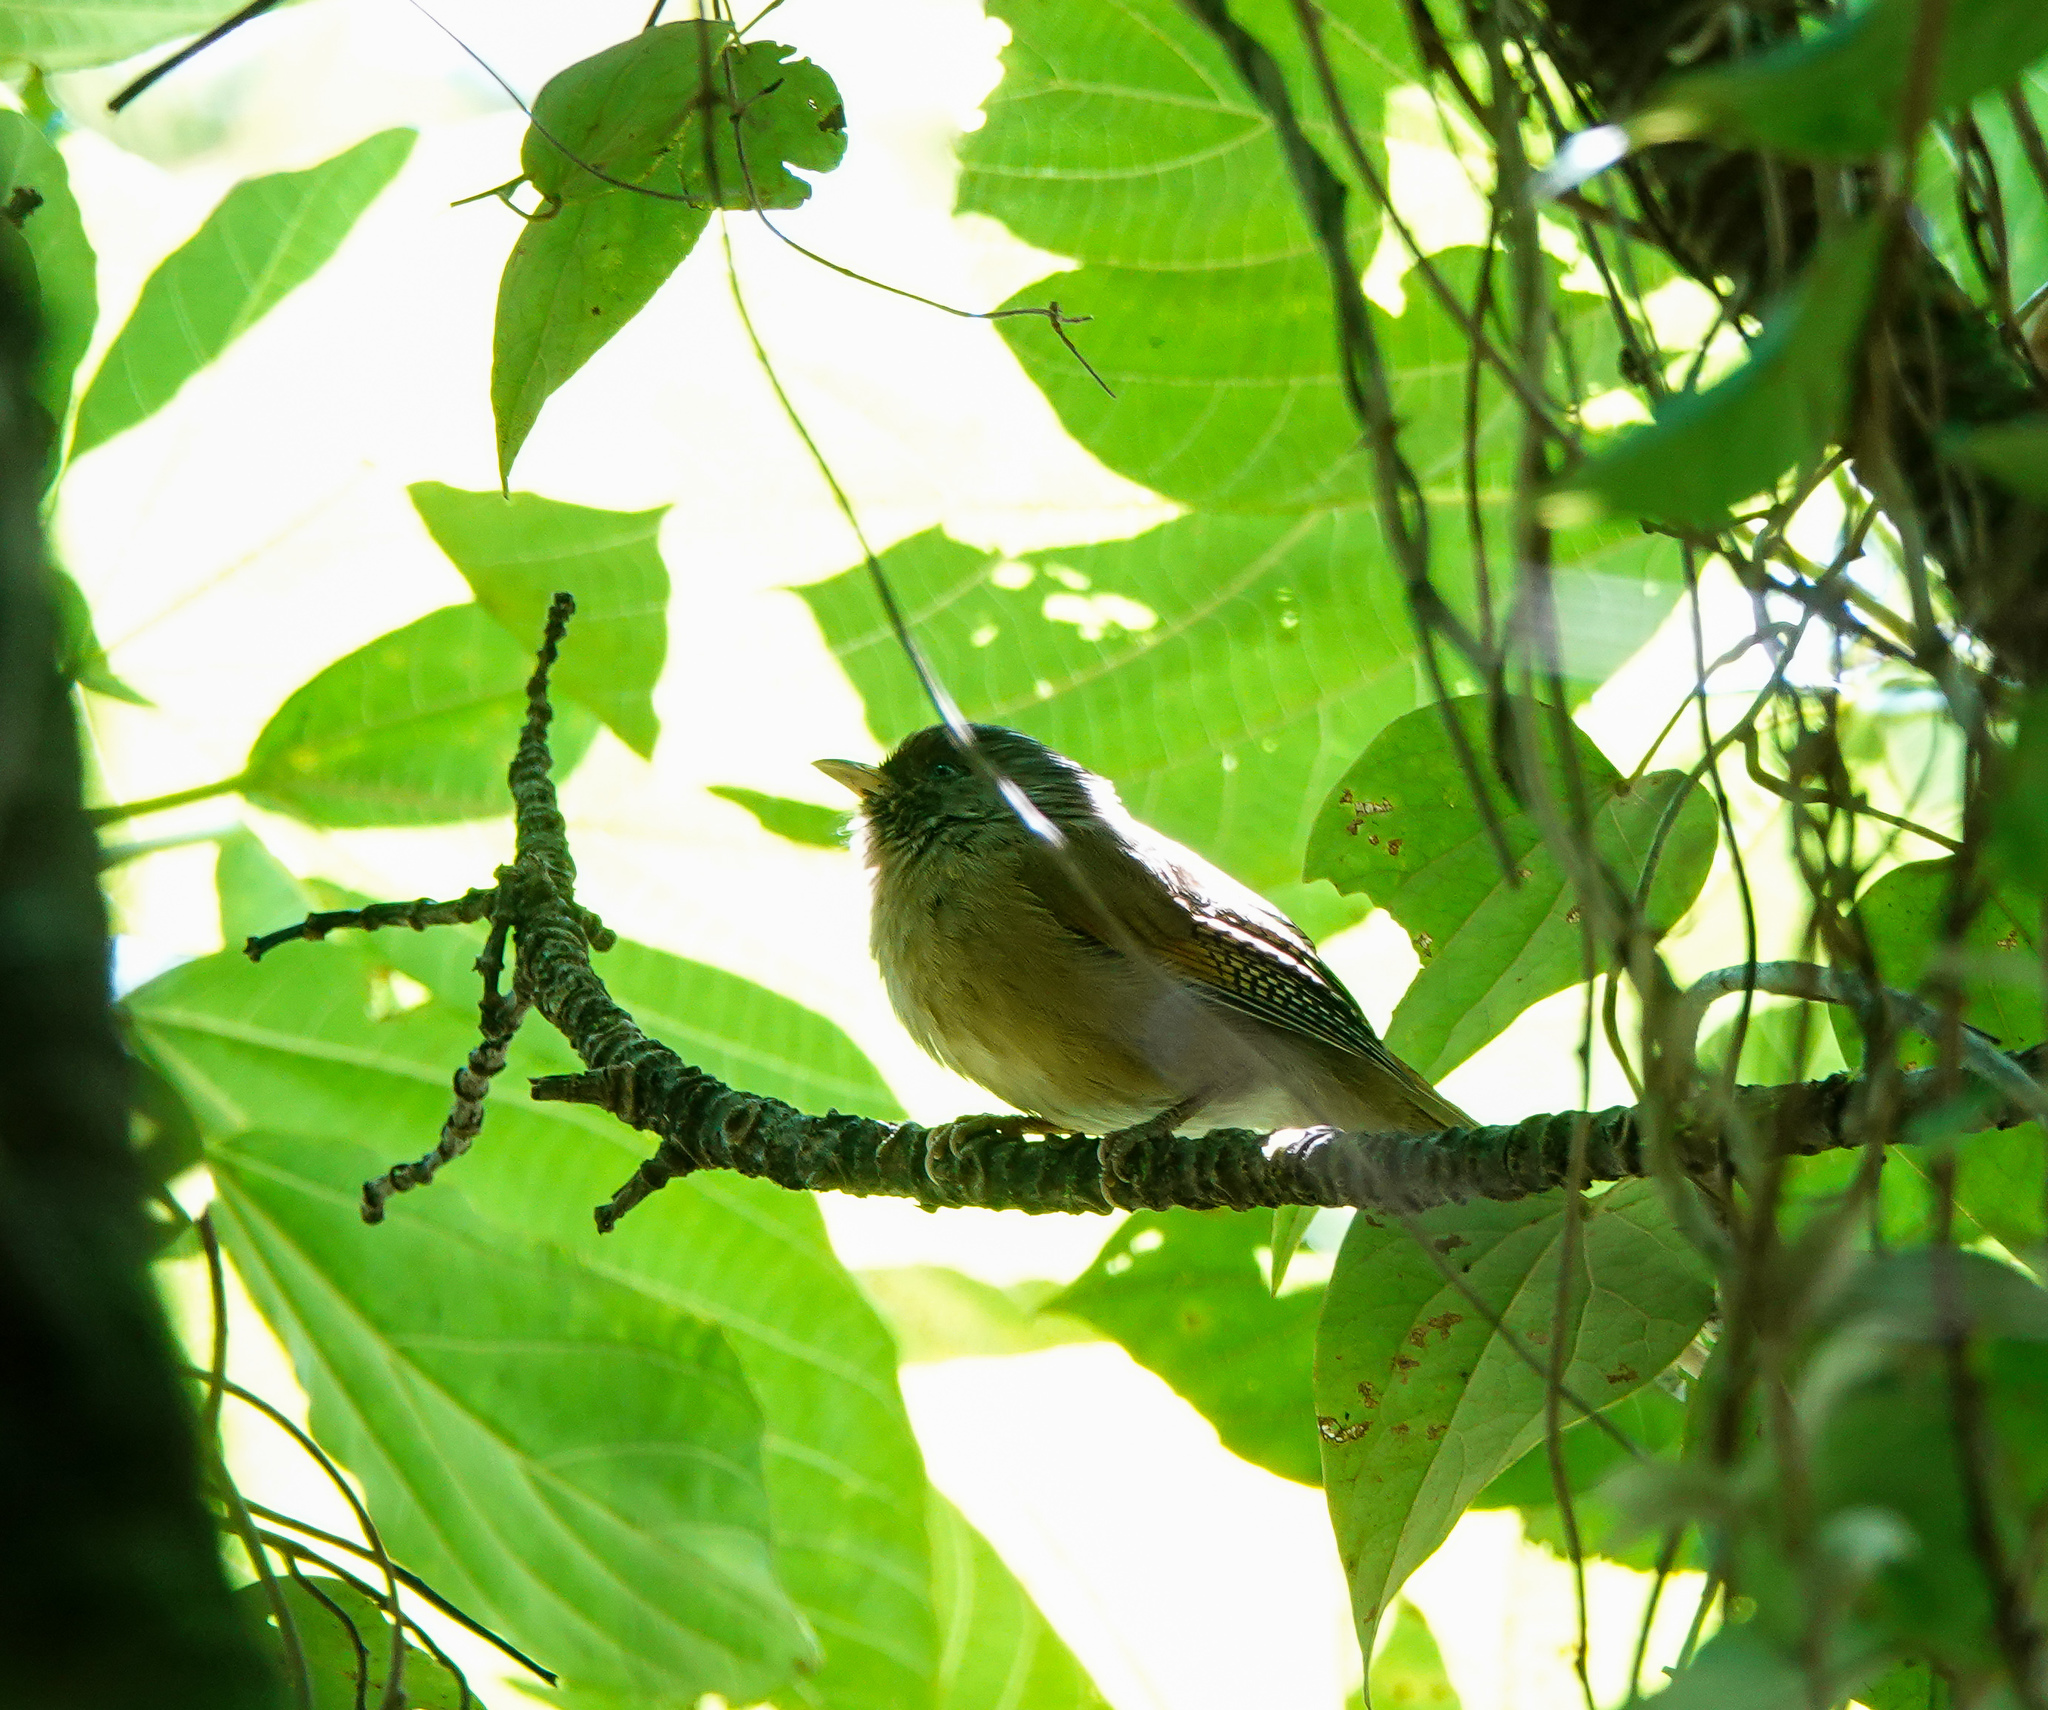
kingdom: Animalia
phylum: Chordata
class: Aves
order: Passeriformes
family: Leiothrichidae
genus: Actinodura
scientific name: Actinodura egertoni
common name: Rusty-fronted barwing
